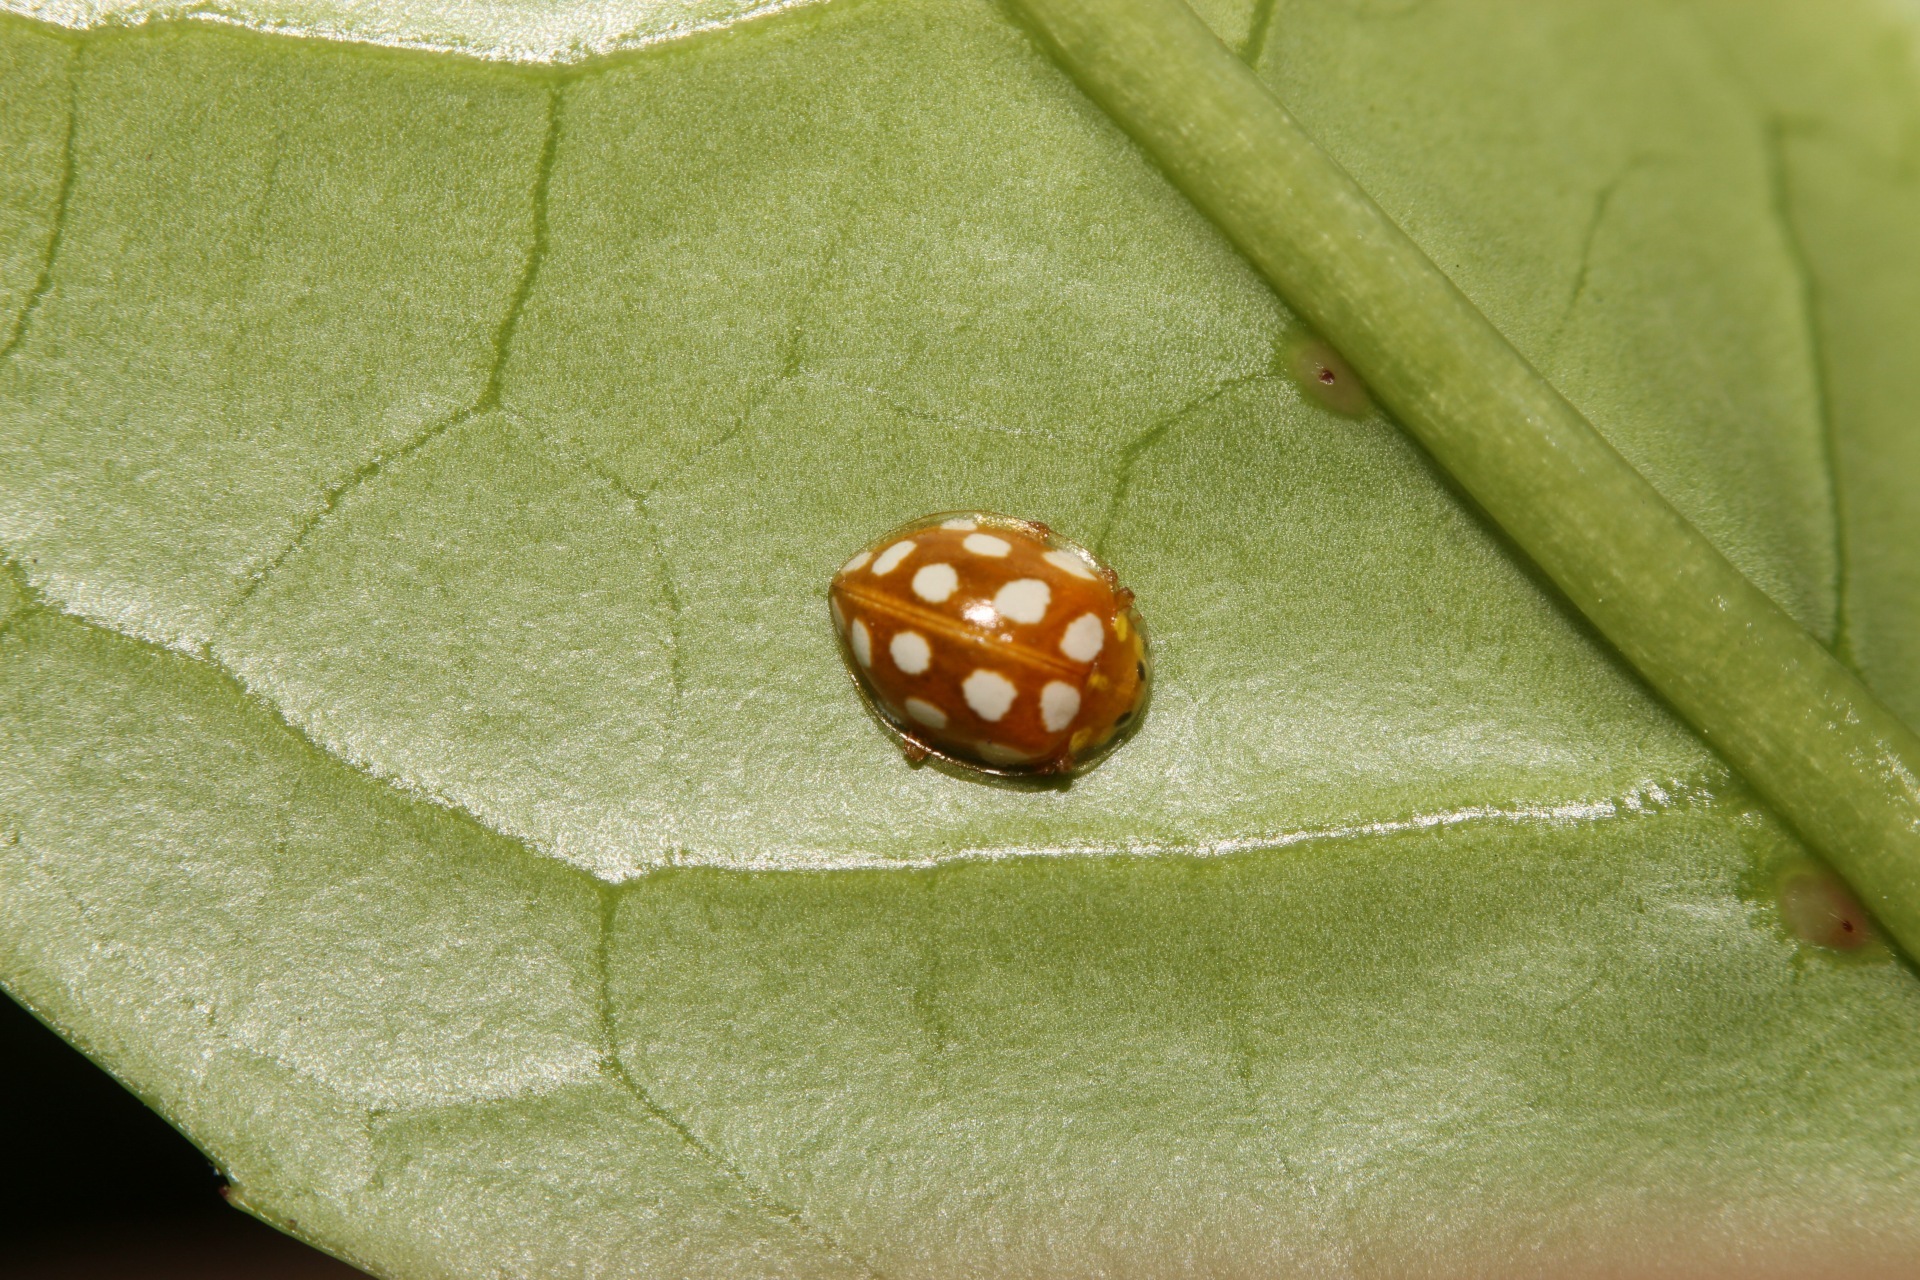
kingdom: Animalia
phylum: Arthropoda
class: Insecta
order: Coleoptera
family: Coccinellidae
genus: Halyzia
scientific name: Halyzia sedecimguttata
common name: Orange ladybird
